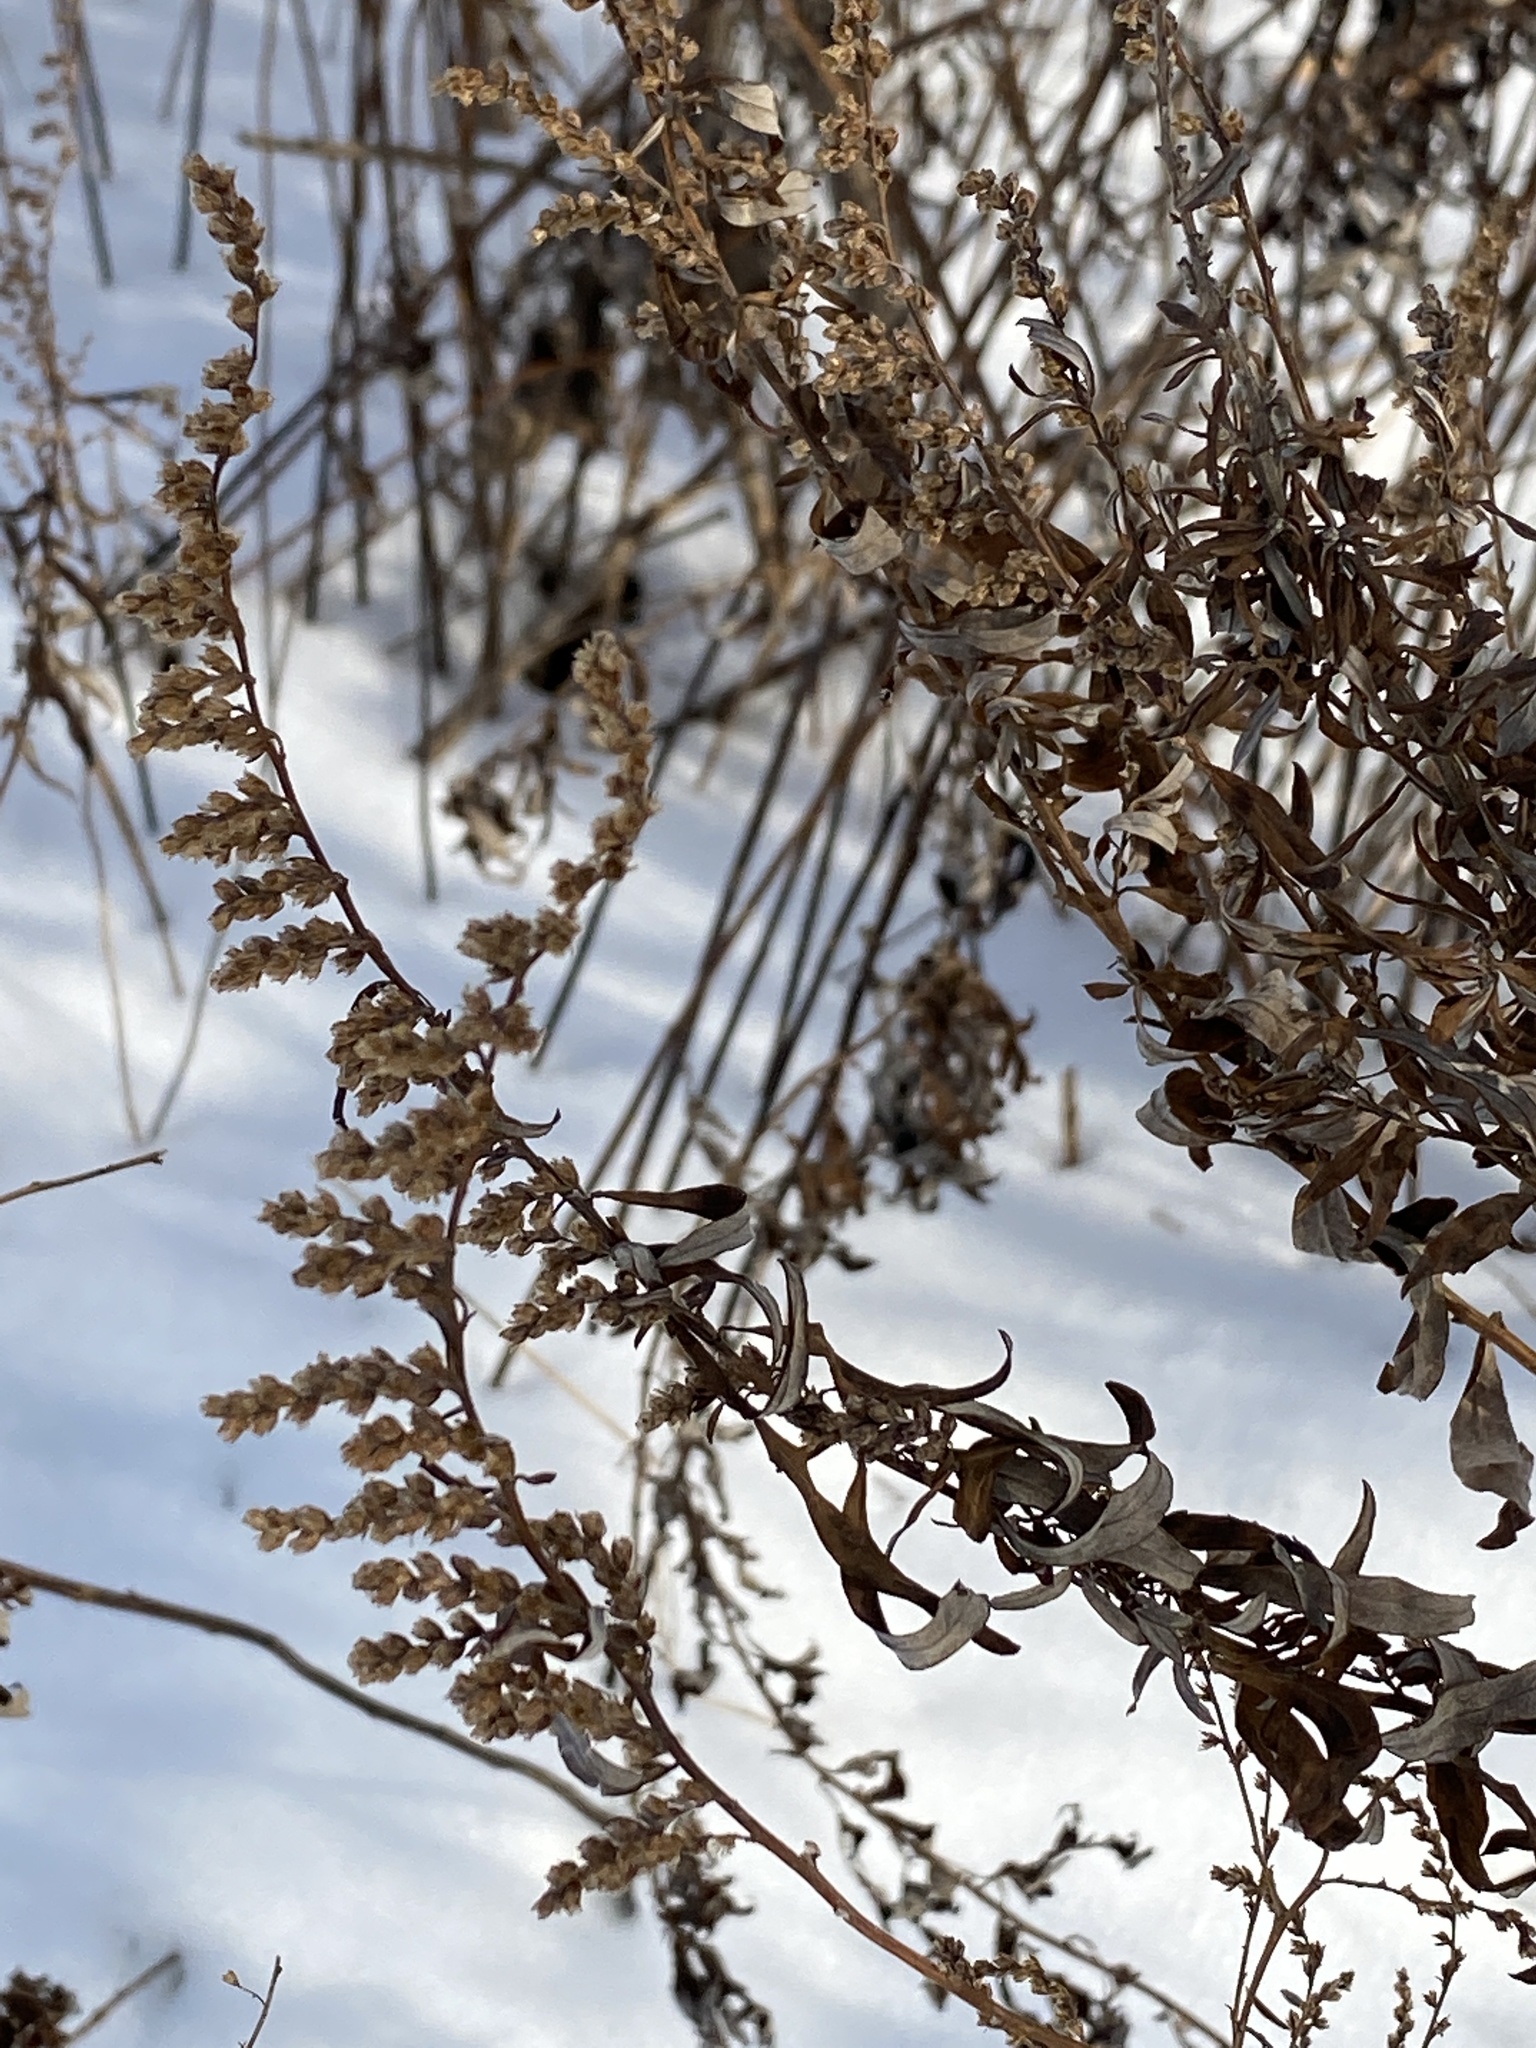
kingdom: Plantae
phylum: Tracheophyta
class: Magnoliopsida
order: Asterales
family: Asteraceae
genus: Artemisia
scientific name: Artemisia vulgaris
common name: Mugwort
